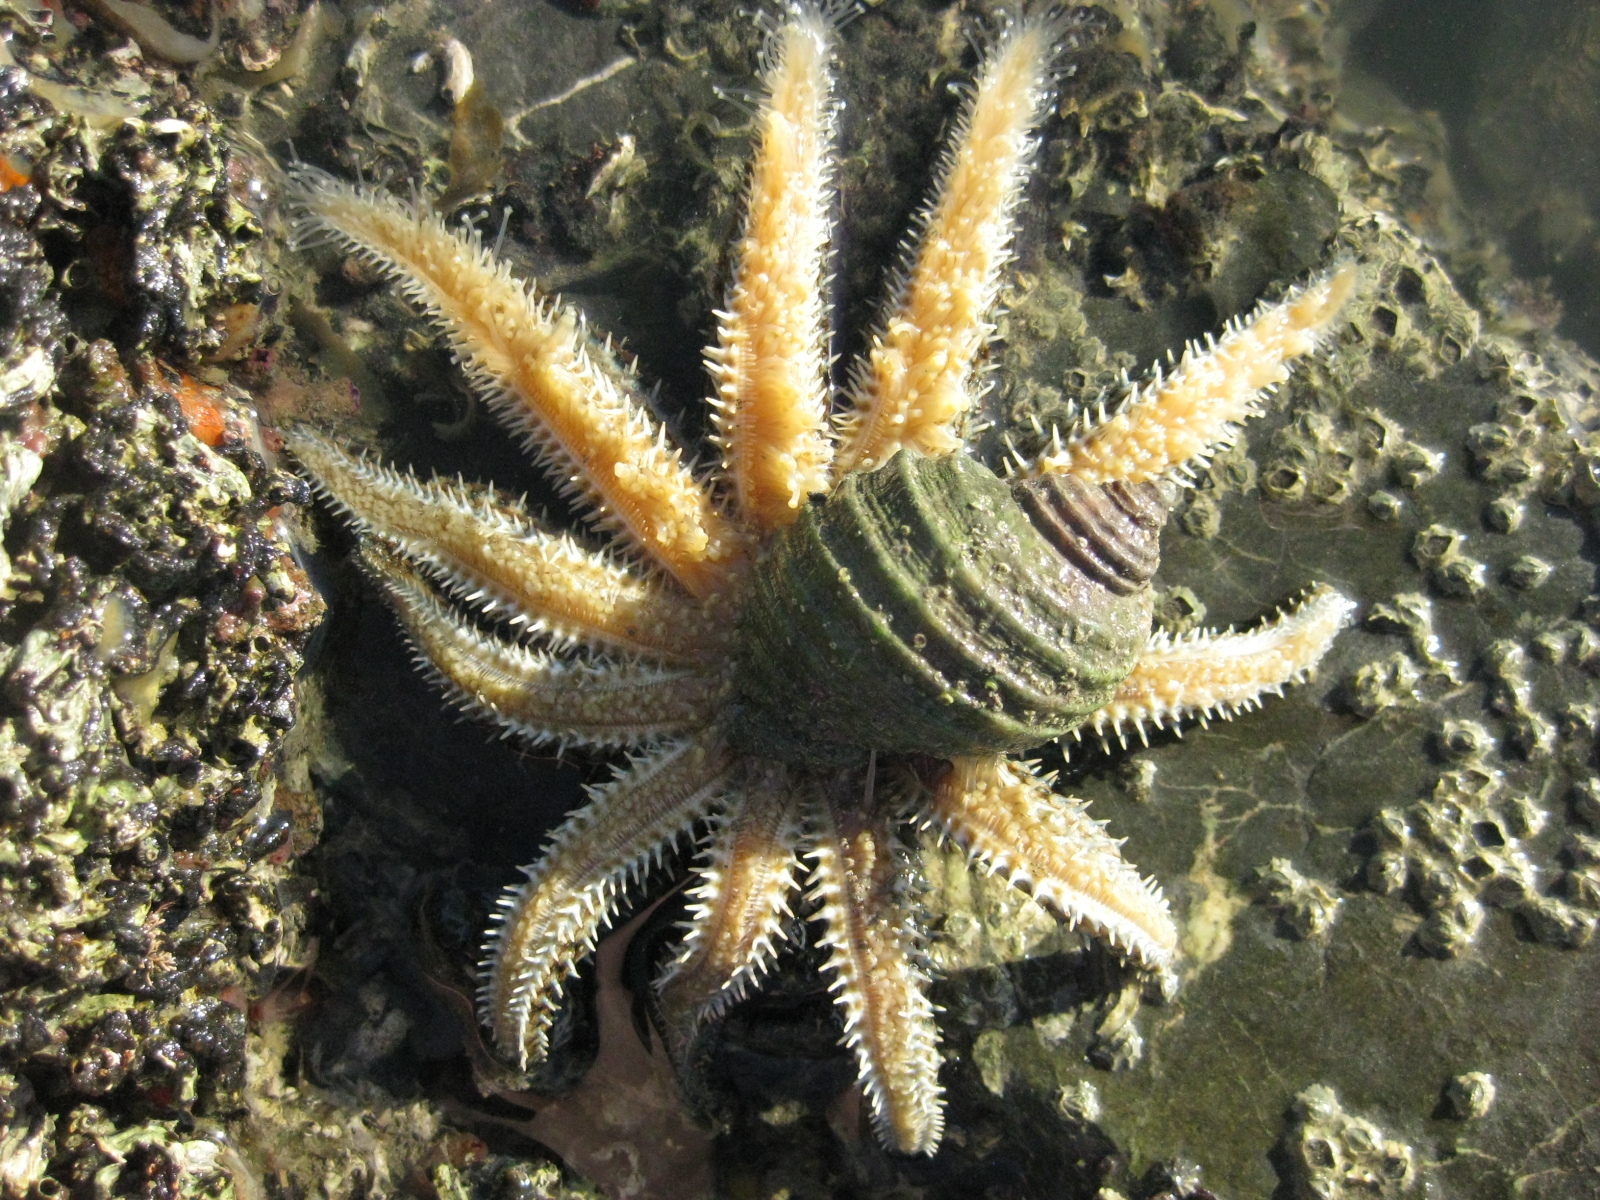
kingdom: Animalia
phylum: Echinodermata
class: Asteroidea
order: Forcipulatida
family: Asteriidae
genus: Coscinasterias
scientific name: Coscinasterias muricata
